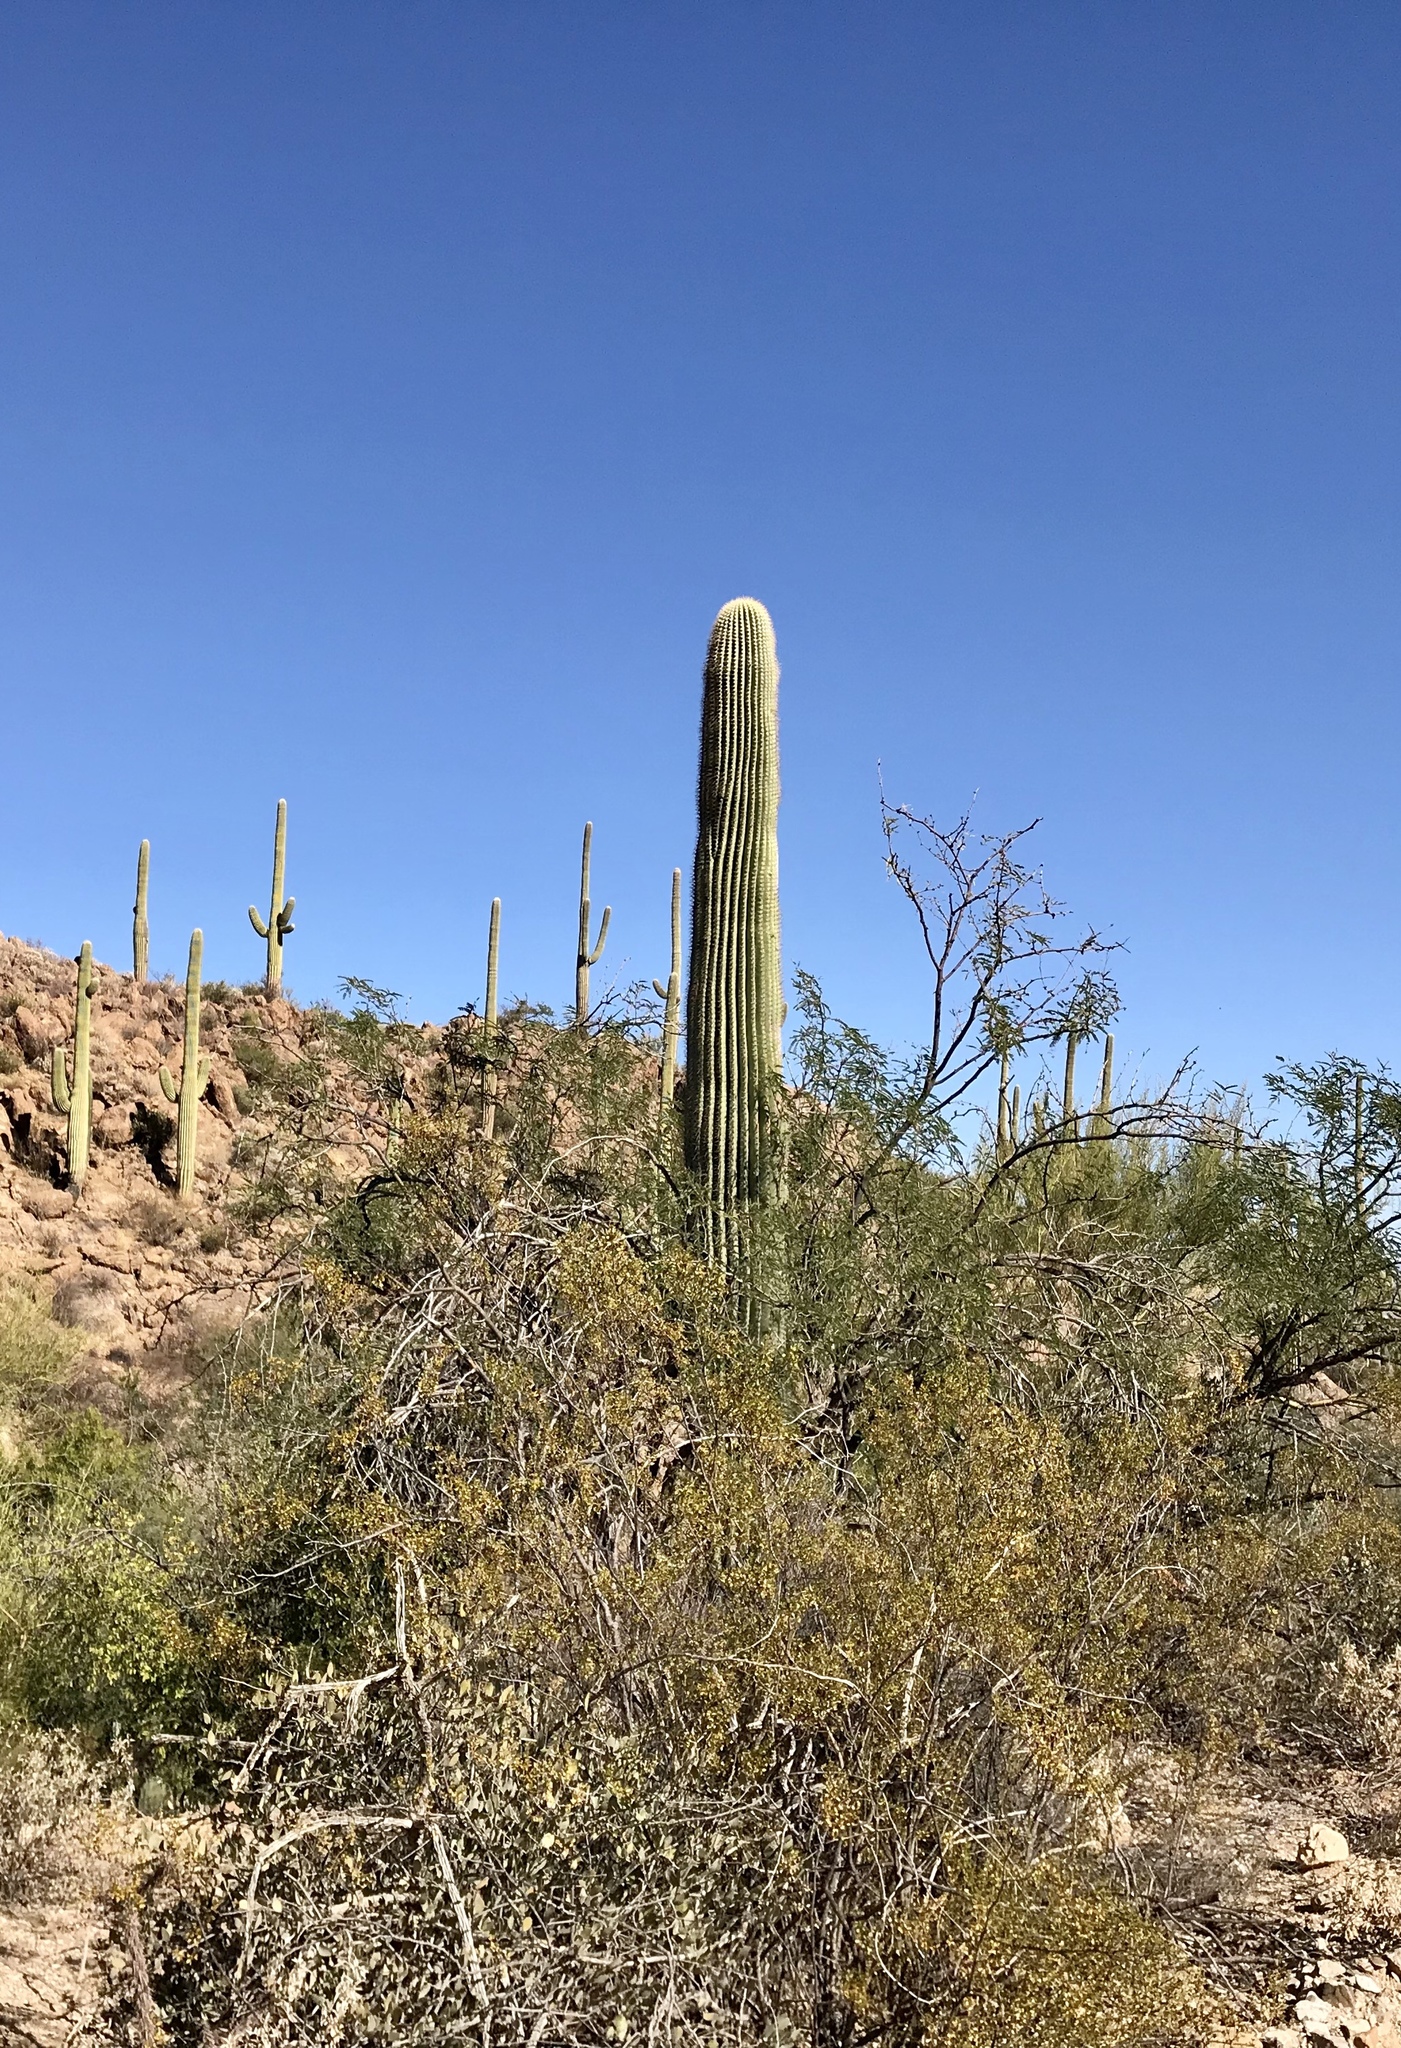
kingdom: Plantae
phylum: Tracheophyta
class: Magnoliopsida
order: Caryophyllales
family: Cactaceae
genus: Carnegiea
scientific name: Carnegiea gigantea
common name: Saguaro
